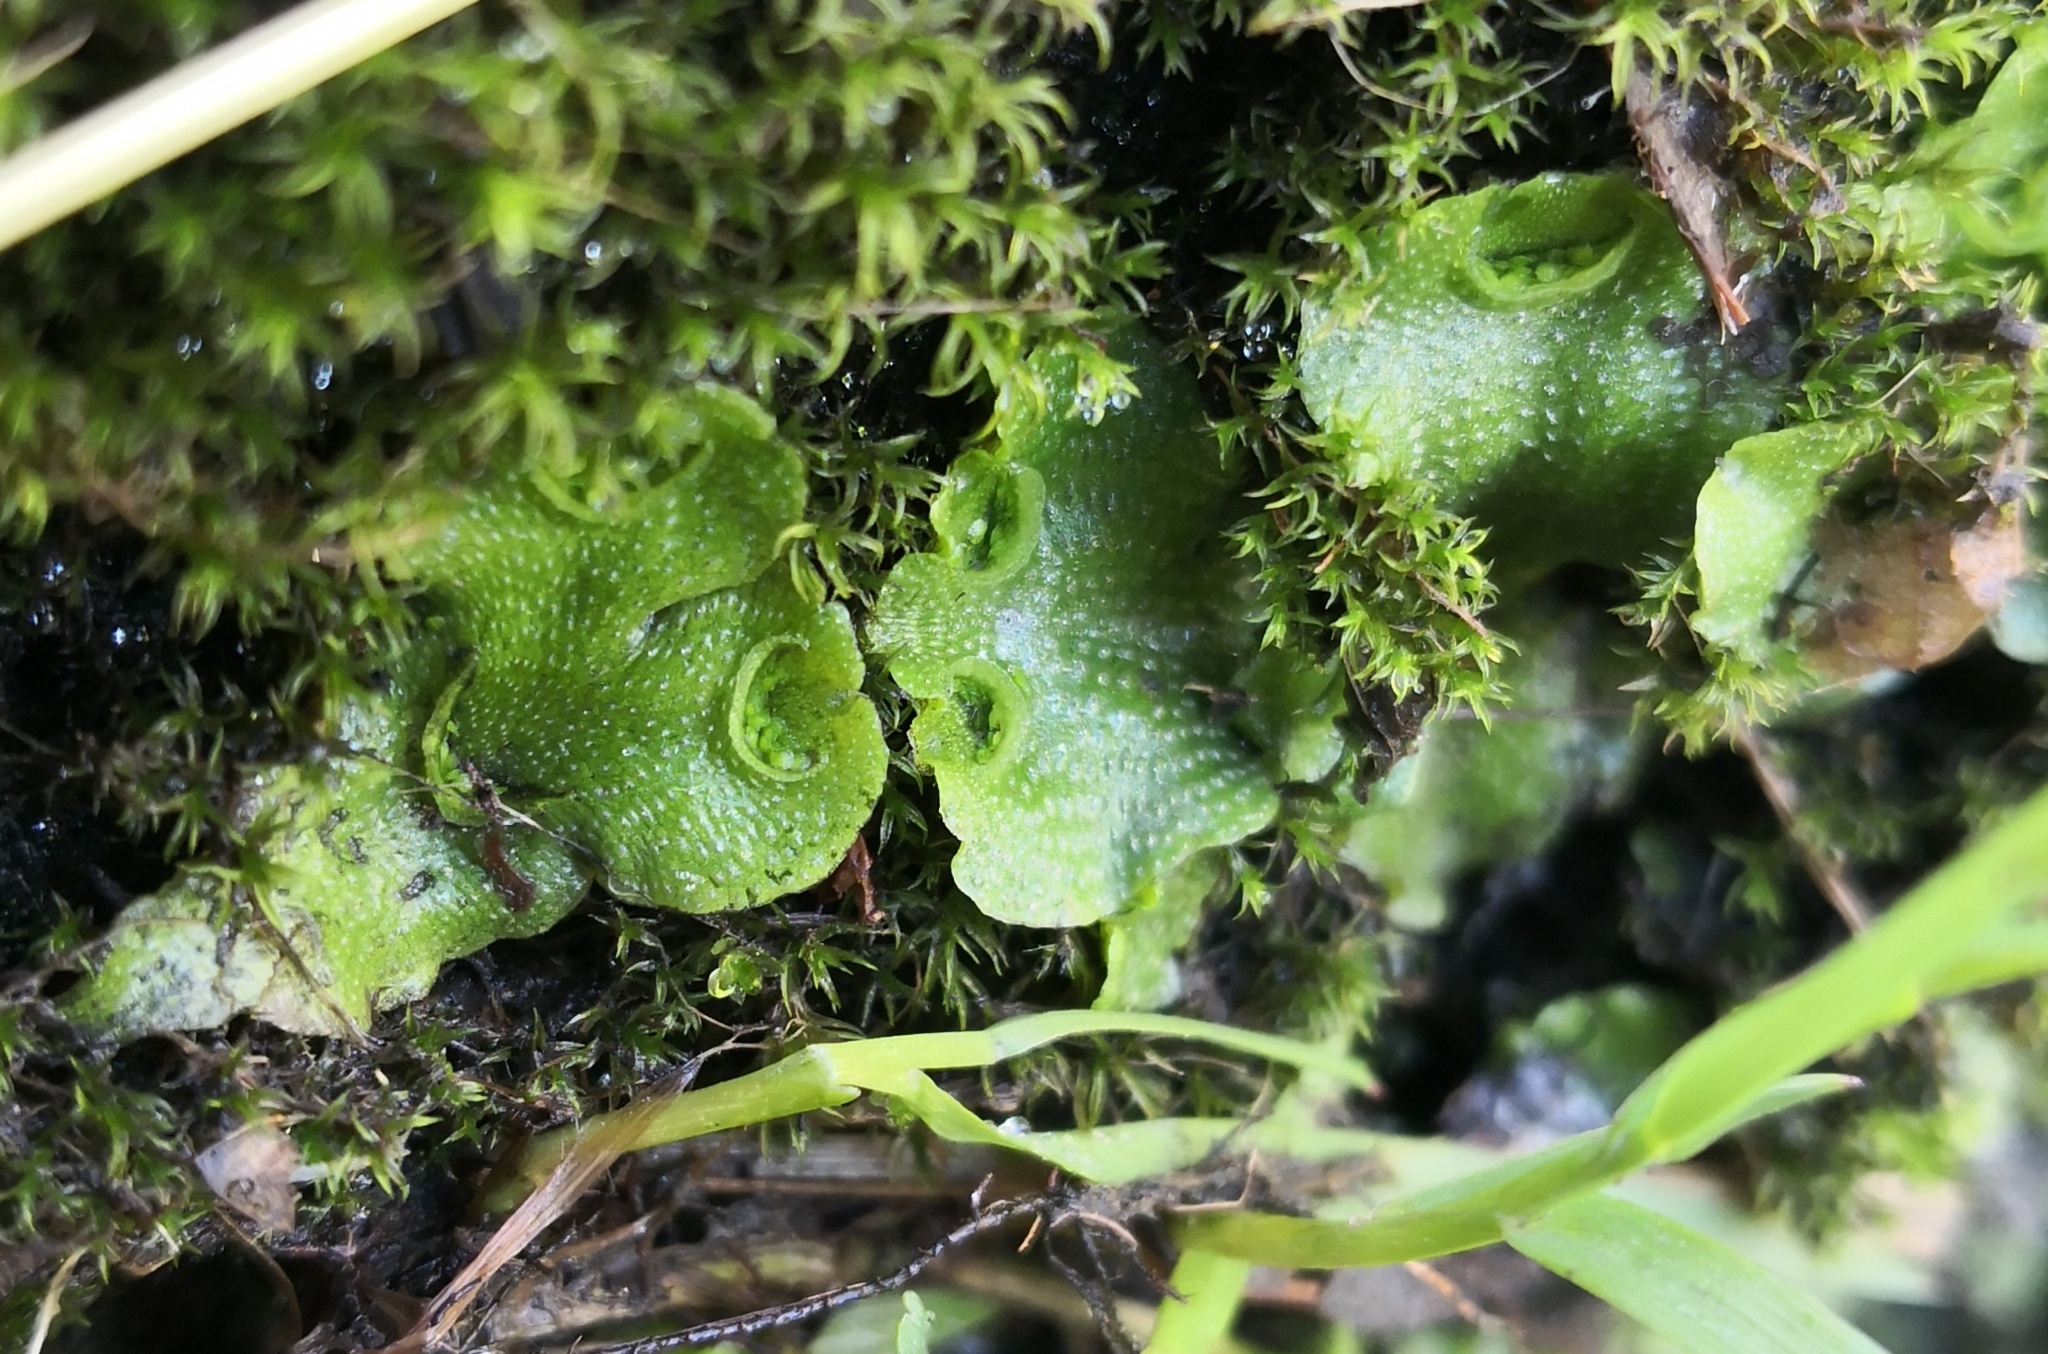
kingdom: Plantae
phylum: Marchantiophyta
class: Marchantiopsida
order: Lunulariales
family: Lunulariaceae
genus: Lunularia
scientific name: Lunularia cruciata
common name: Crescent-cup liverwort
